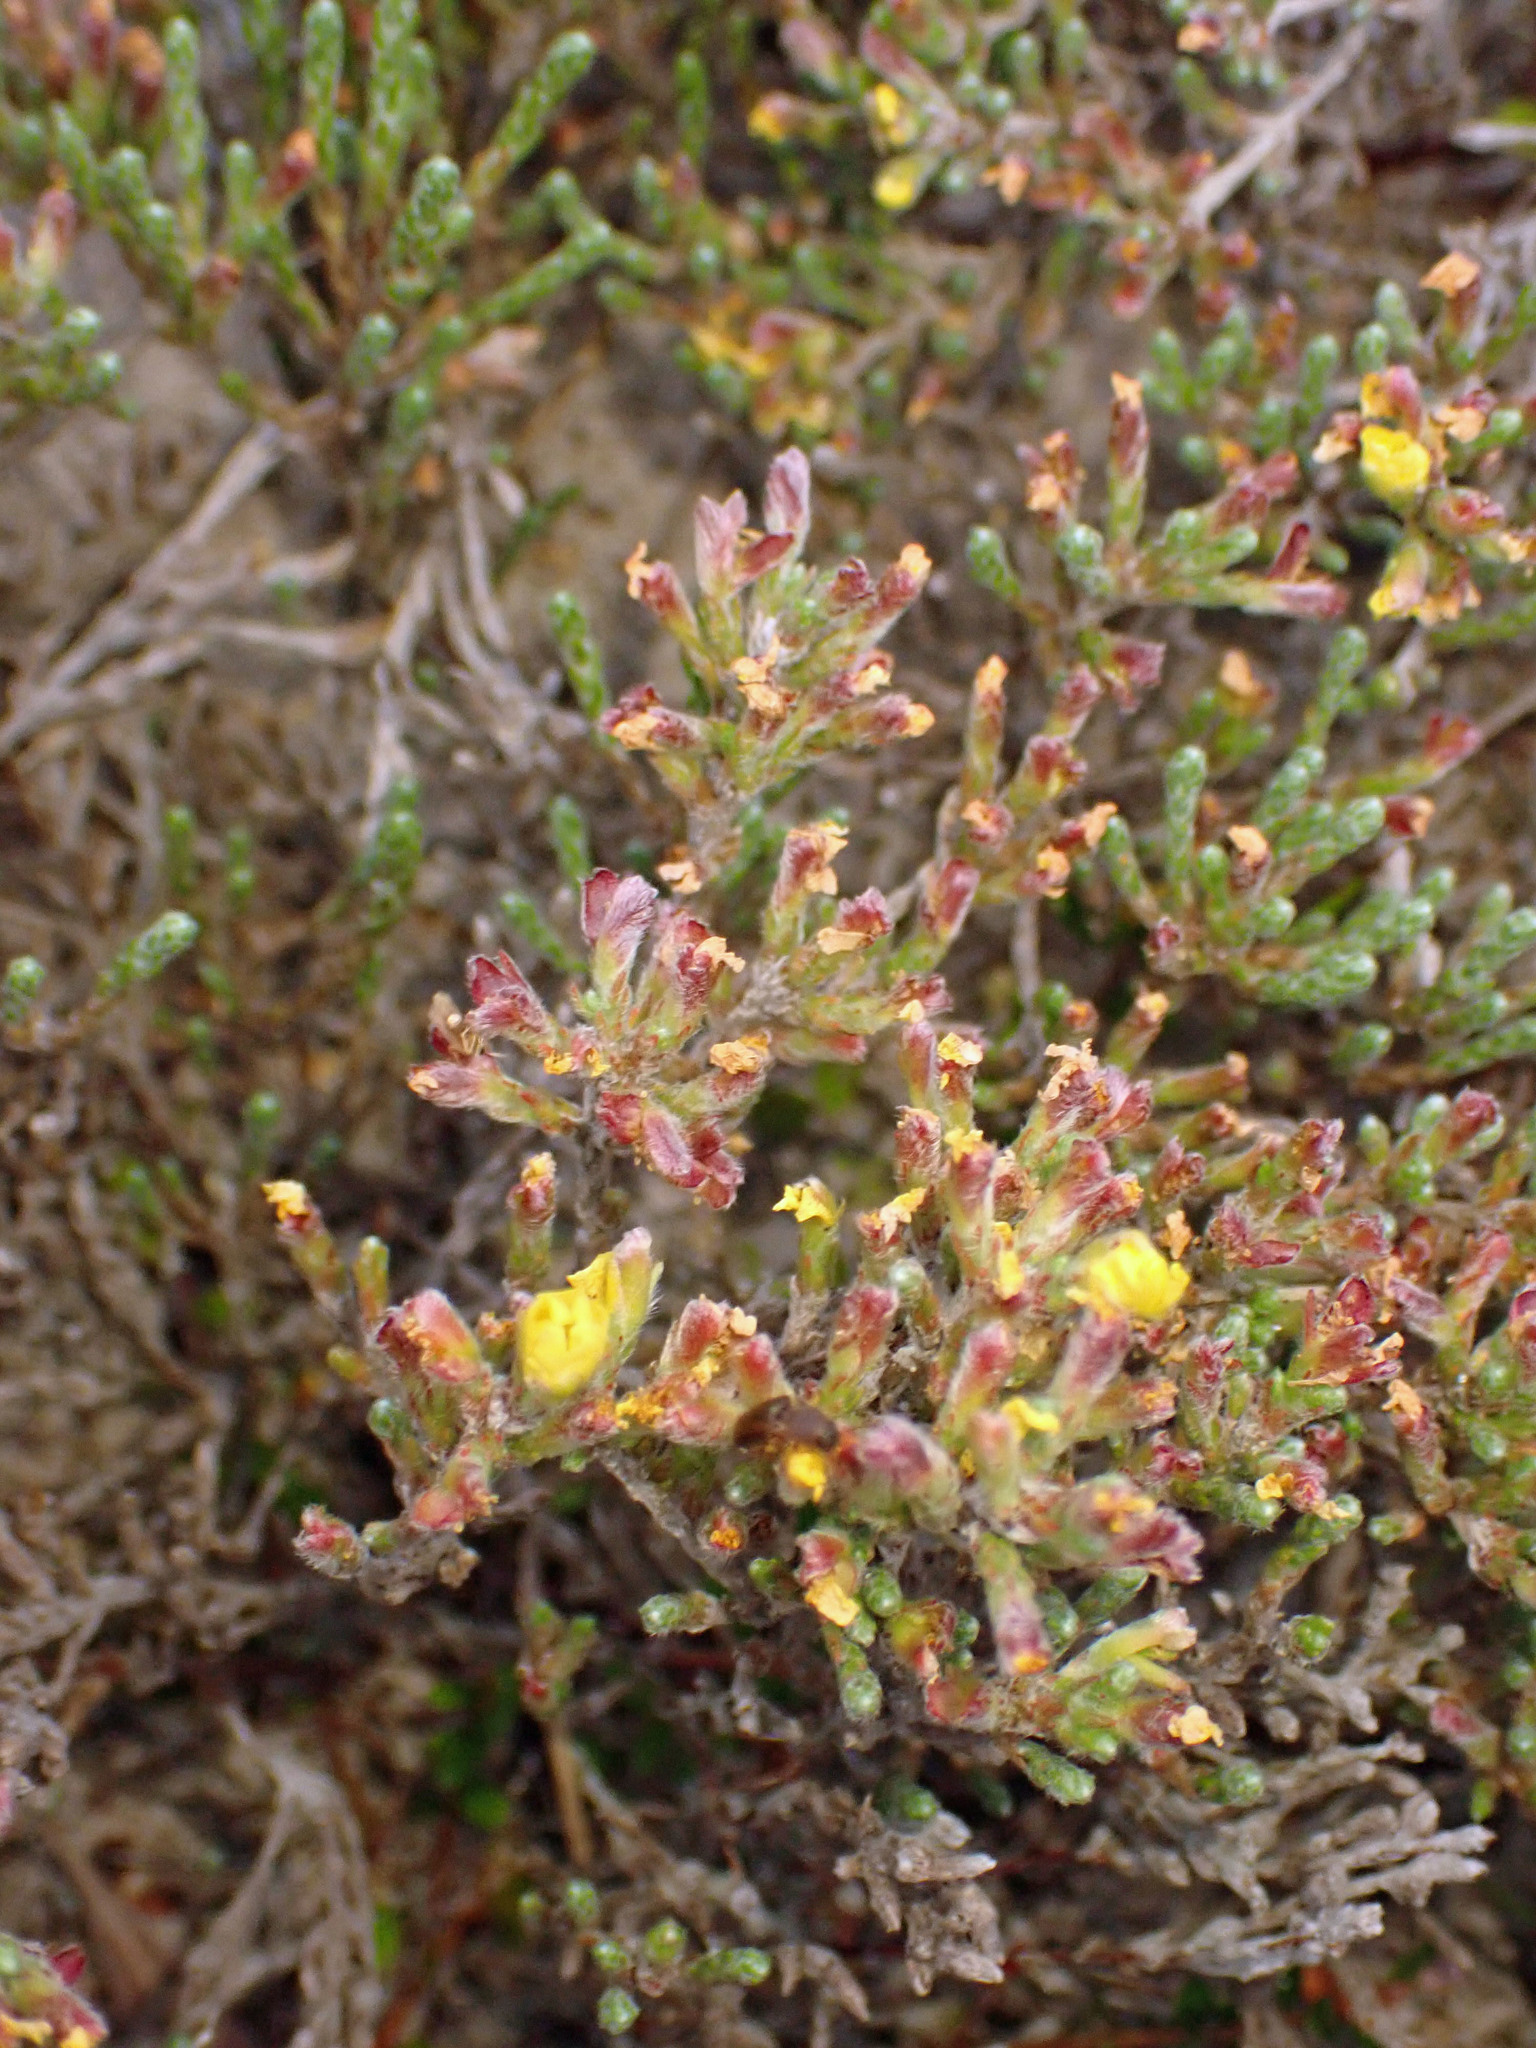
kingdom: Plantae
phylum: Tracheophyta
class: Magnoliopsida
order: Malvales
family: Cistaceae
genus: Hudsonia
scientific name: Hudsonia tomentosa
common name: Beach-heath
